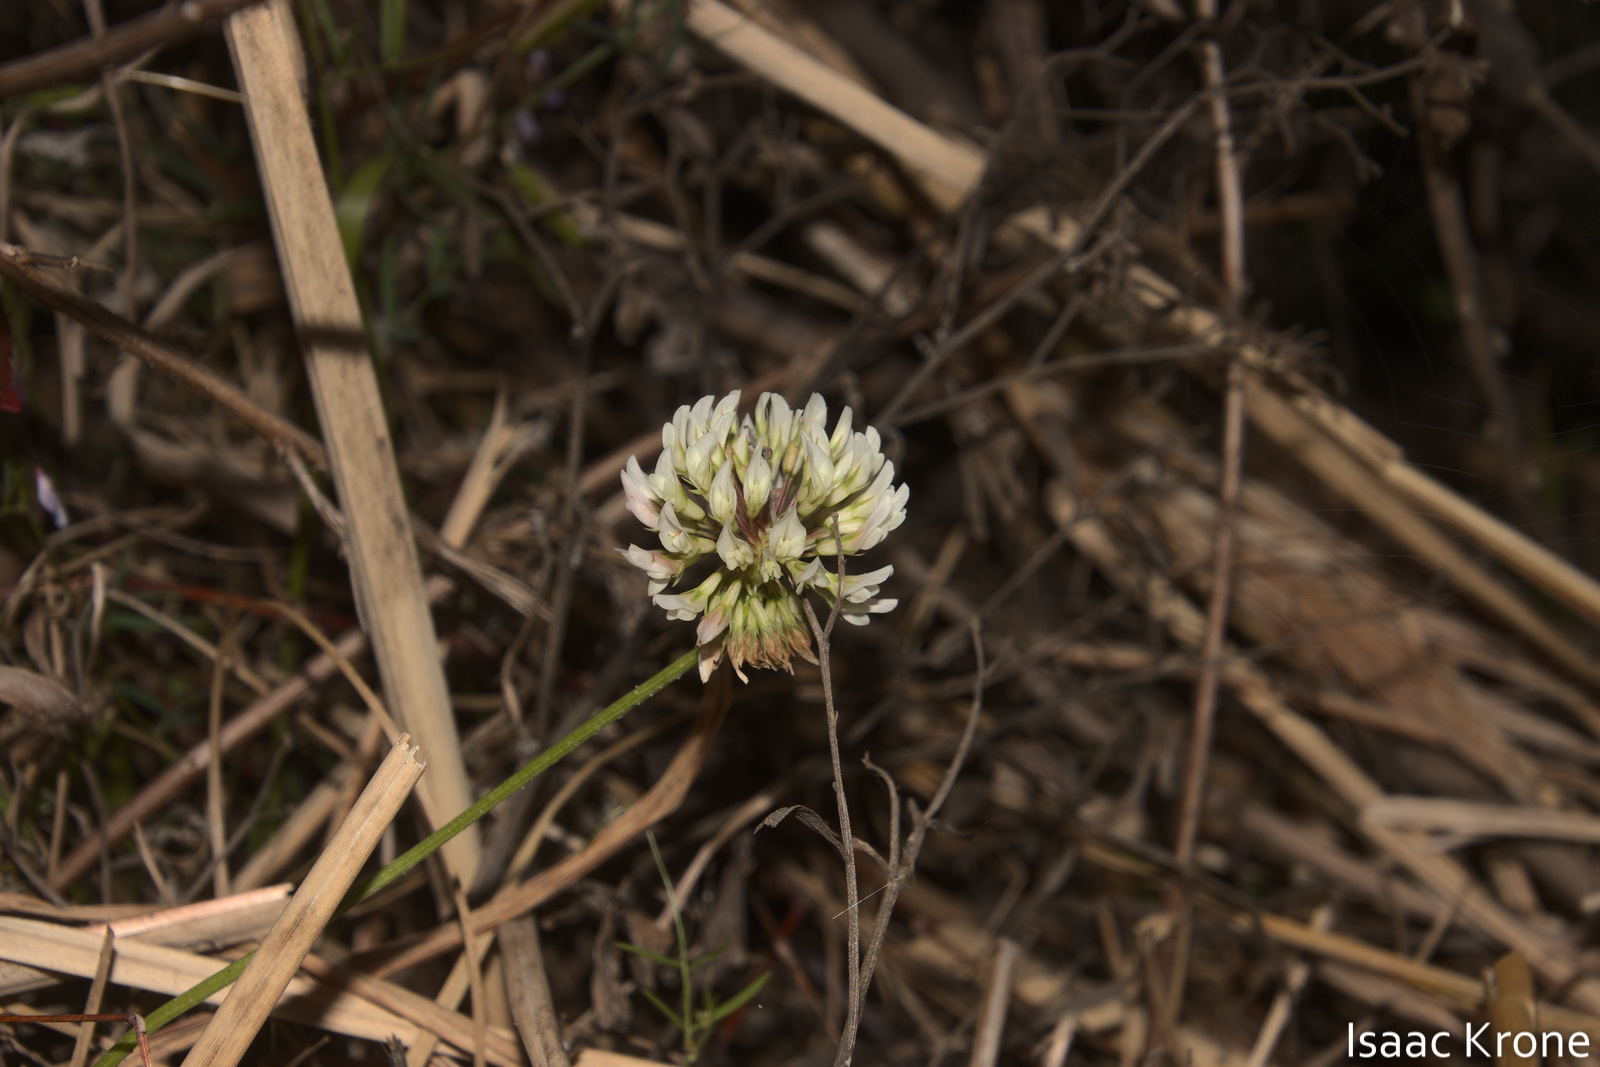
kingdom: Plantae
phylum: Tracheophyta
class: Magnoliopsida
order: Fabales
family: Fabaceae
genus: Trifolium
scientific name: Trifolium repens
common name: White clover
